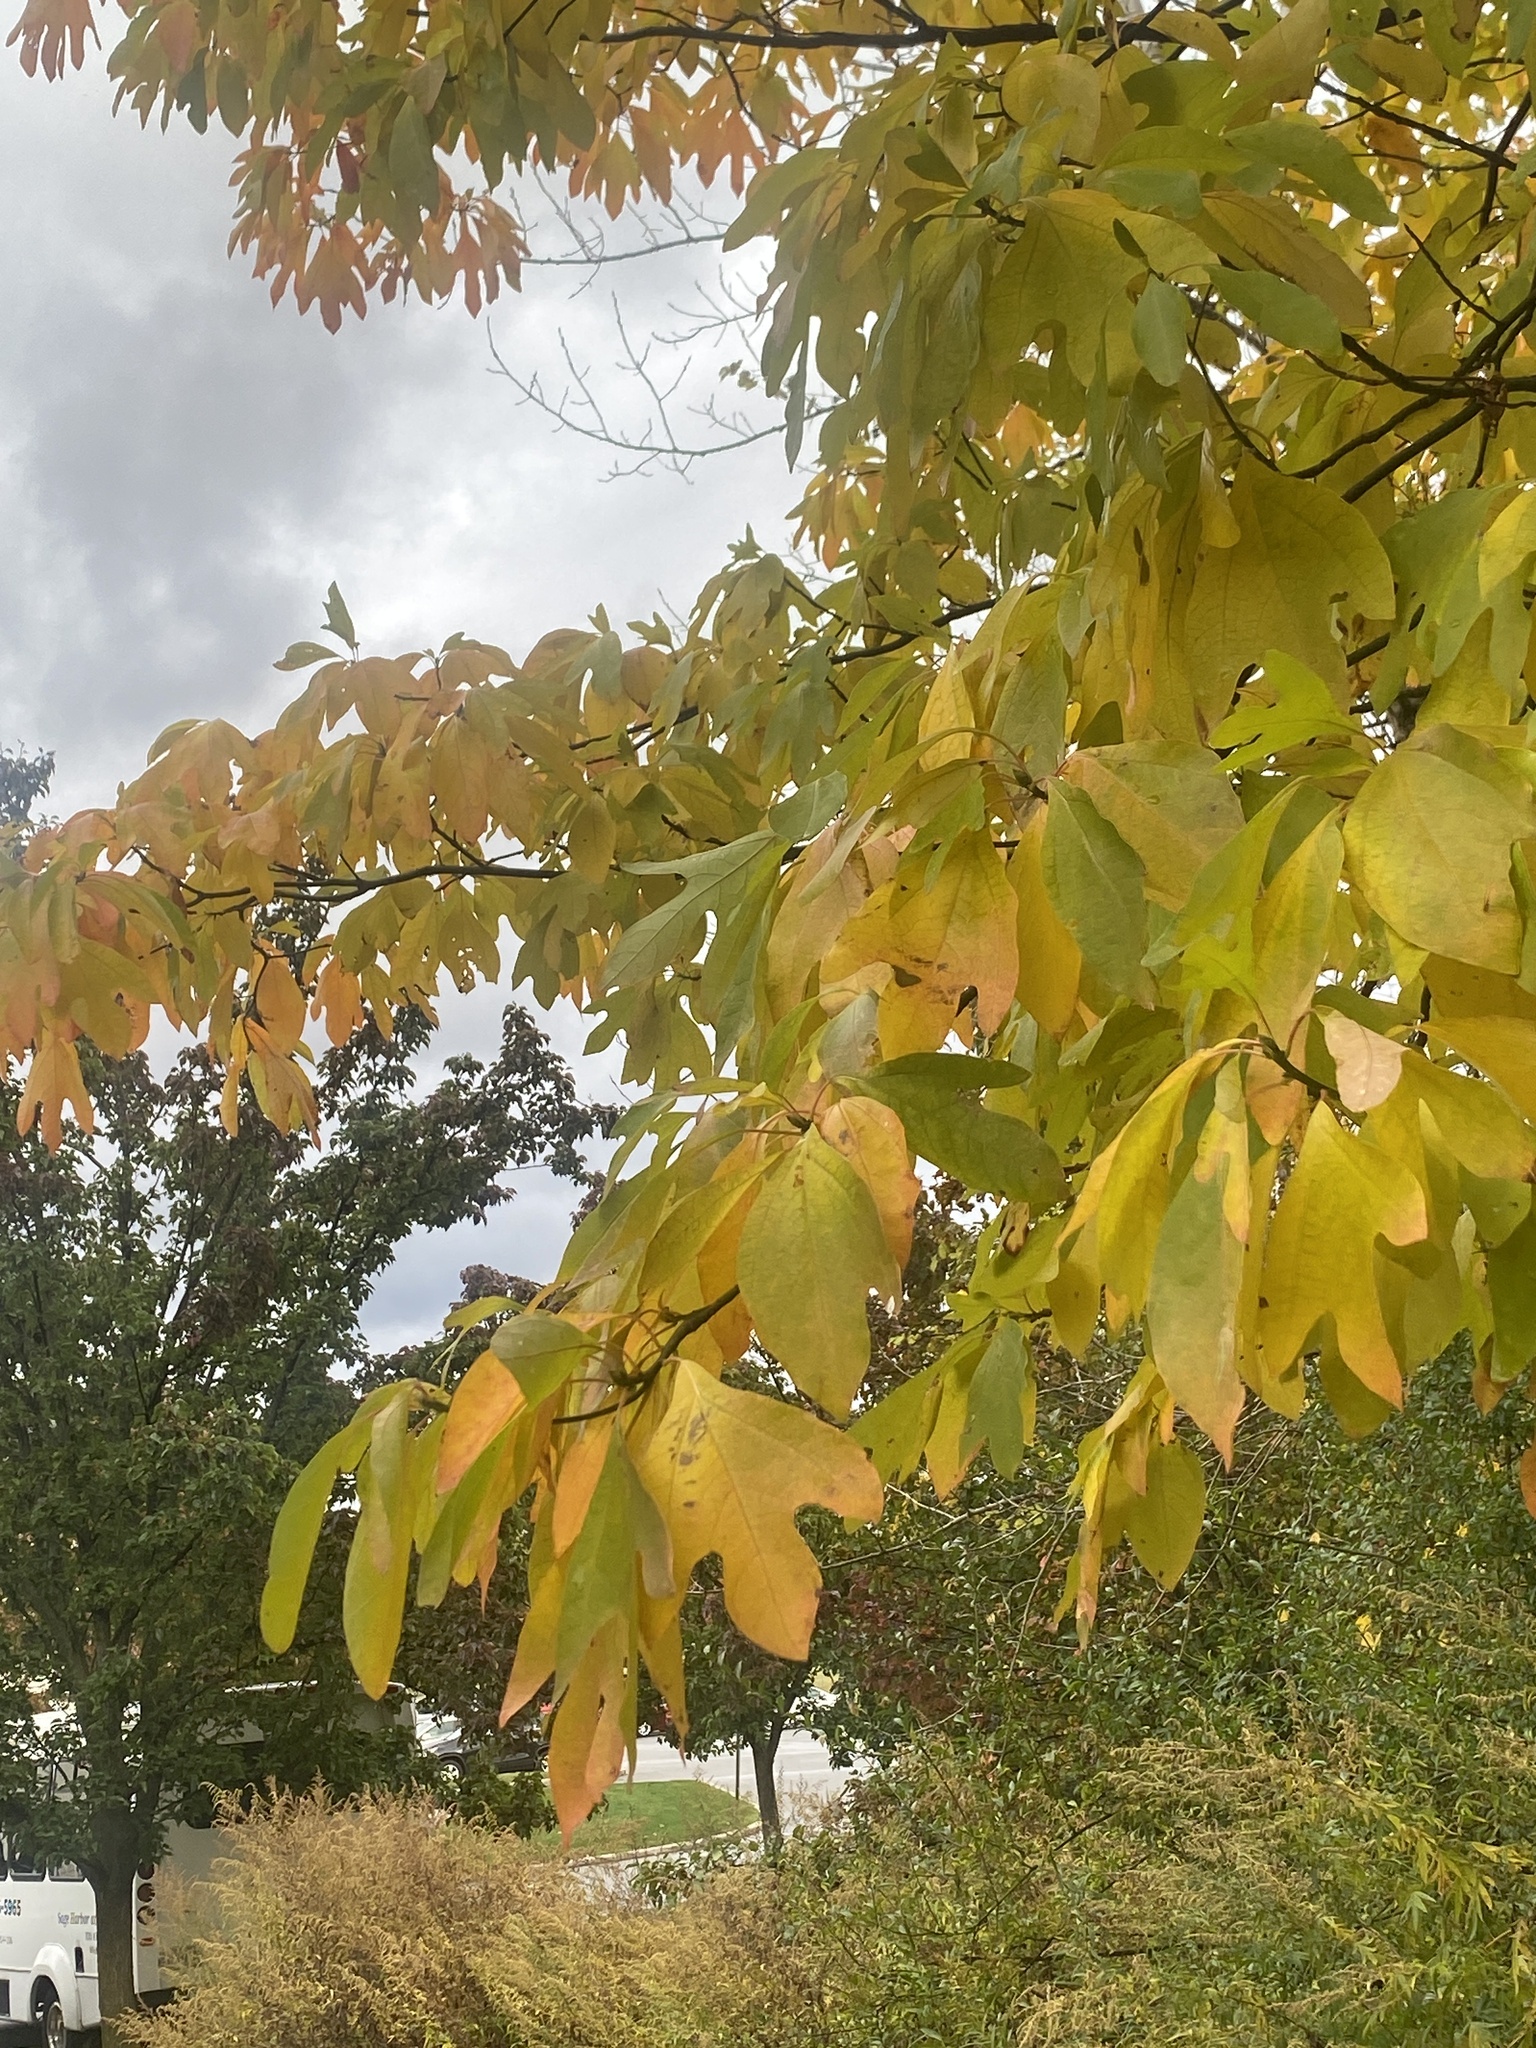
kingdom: Plantae
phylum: Tracheophyta
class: Magnoliopsida
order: Laurales
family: Lauraceae
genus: Sassafras
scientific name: Sassafras albidum
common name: Sassafras
